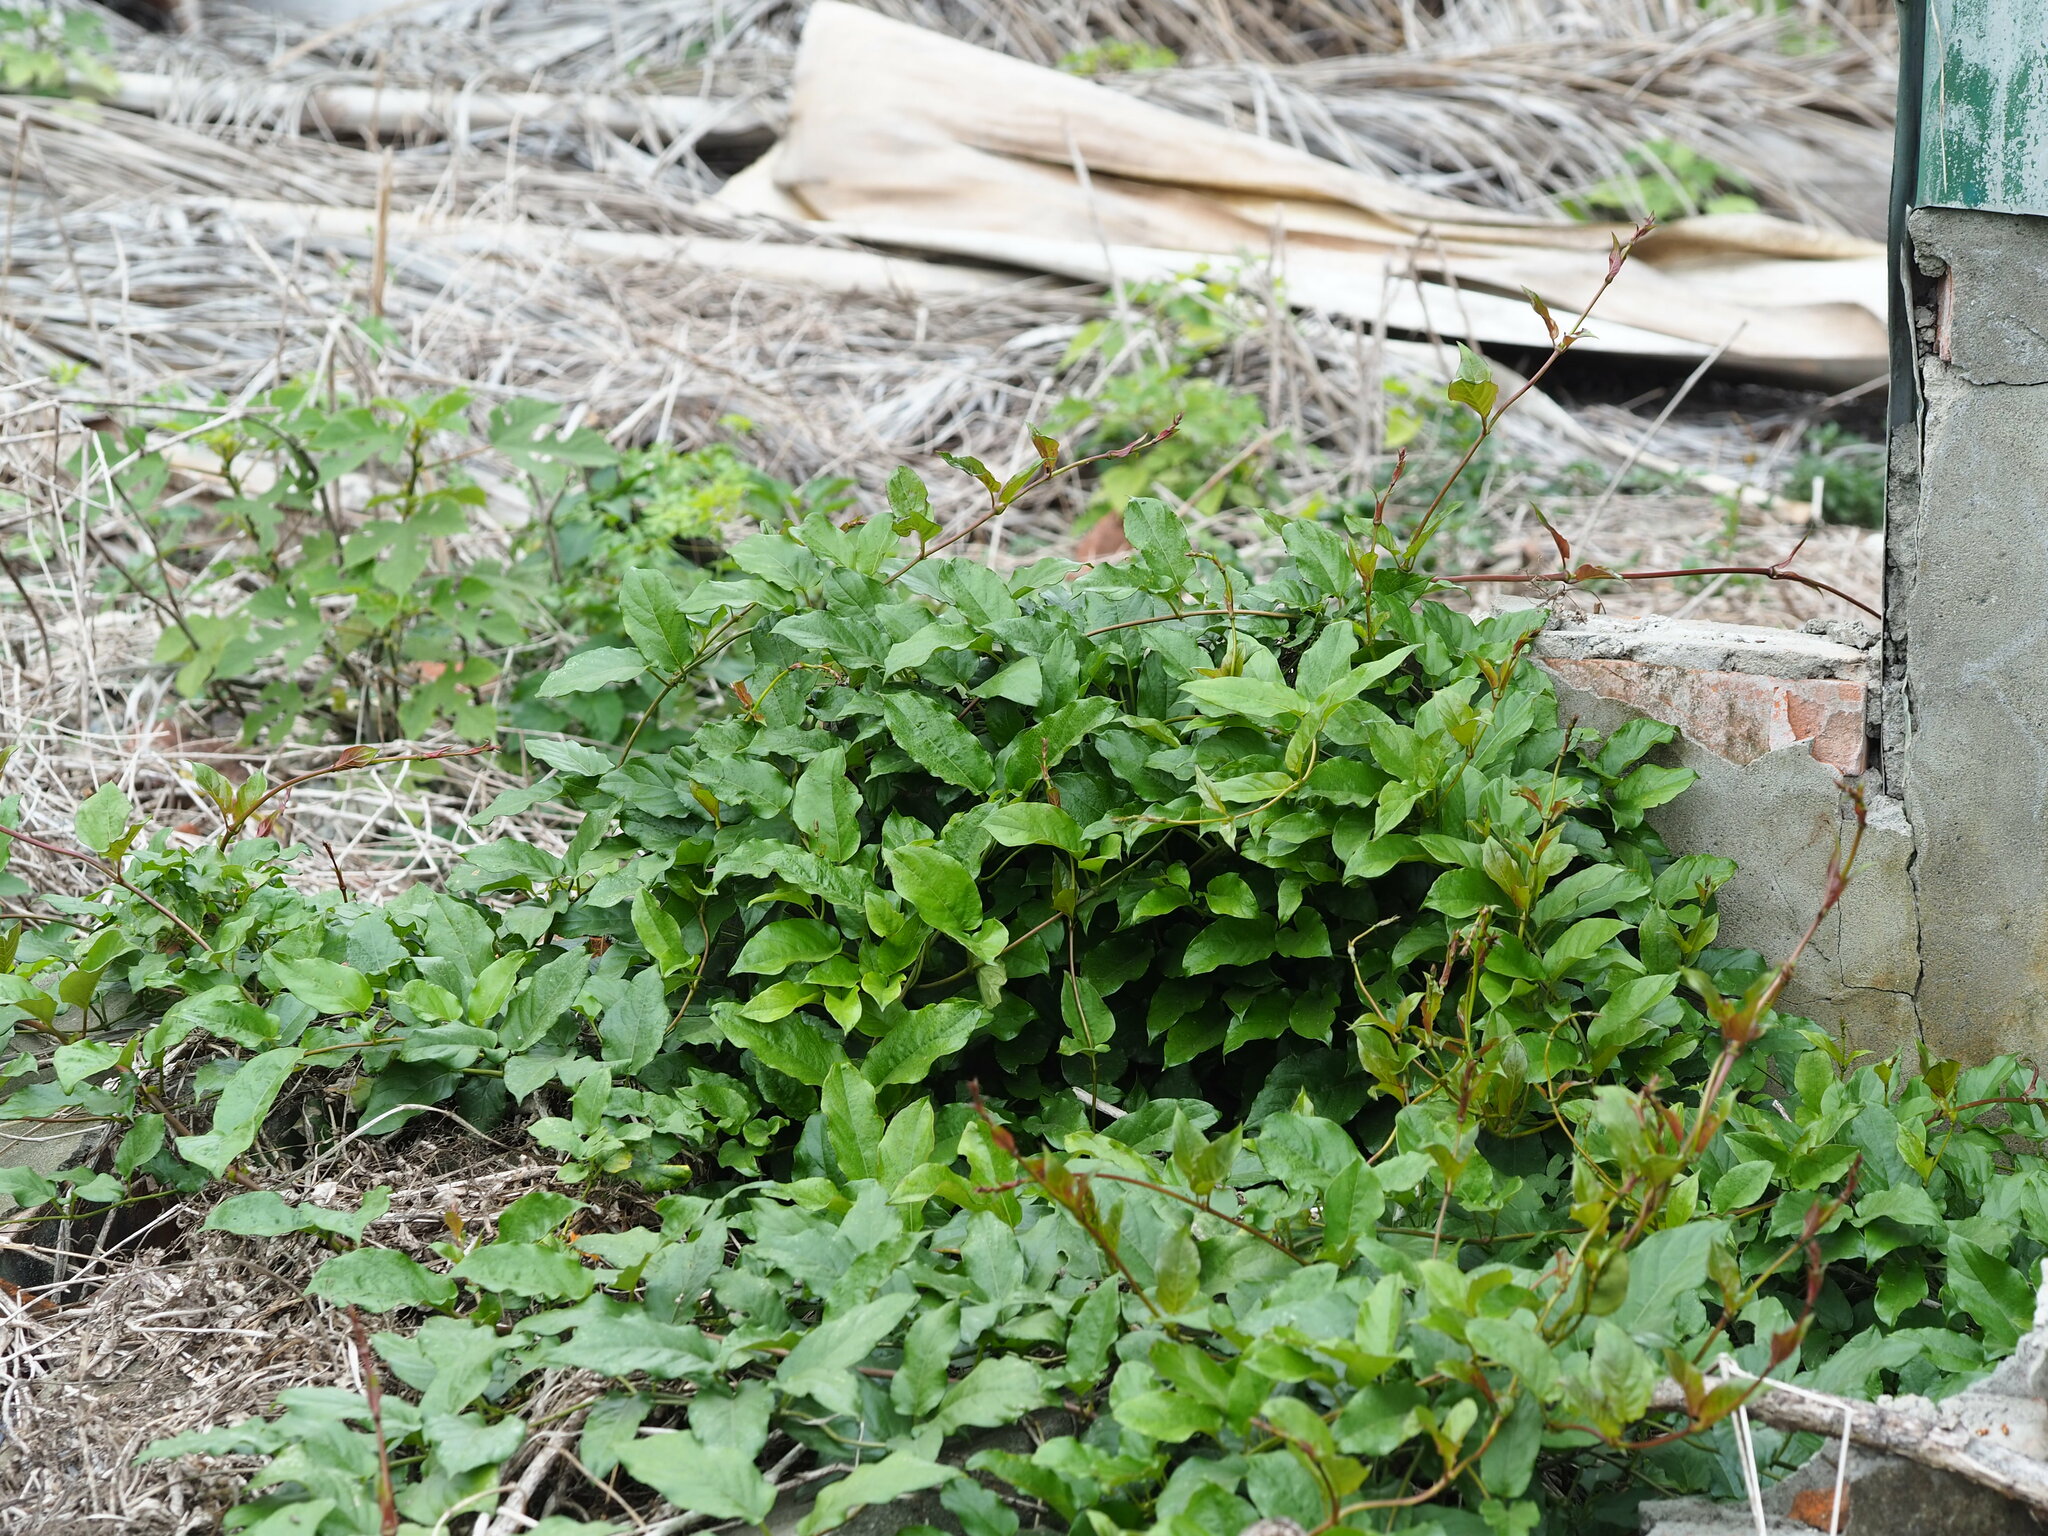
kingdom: Plantae
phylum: Tracheophyta
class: Magnoliopsida
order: Gentianales
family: Rubiaceae
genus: Paederia
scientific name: Paederia foetida
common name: Stinkvine
